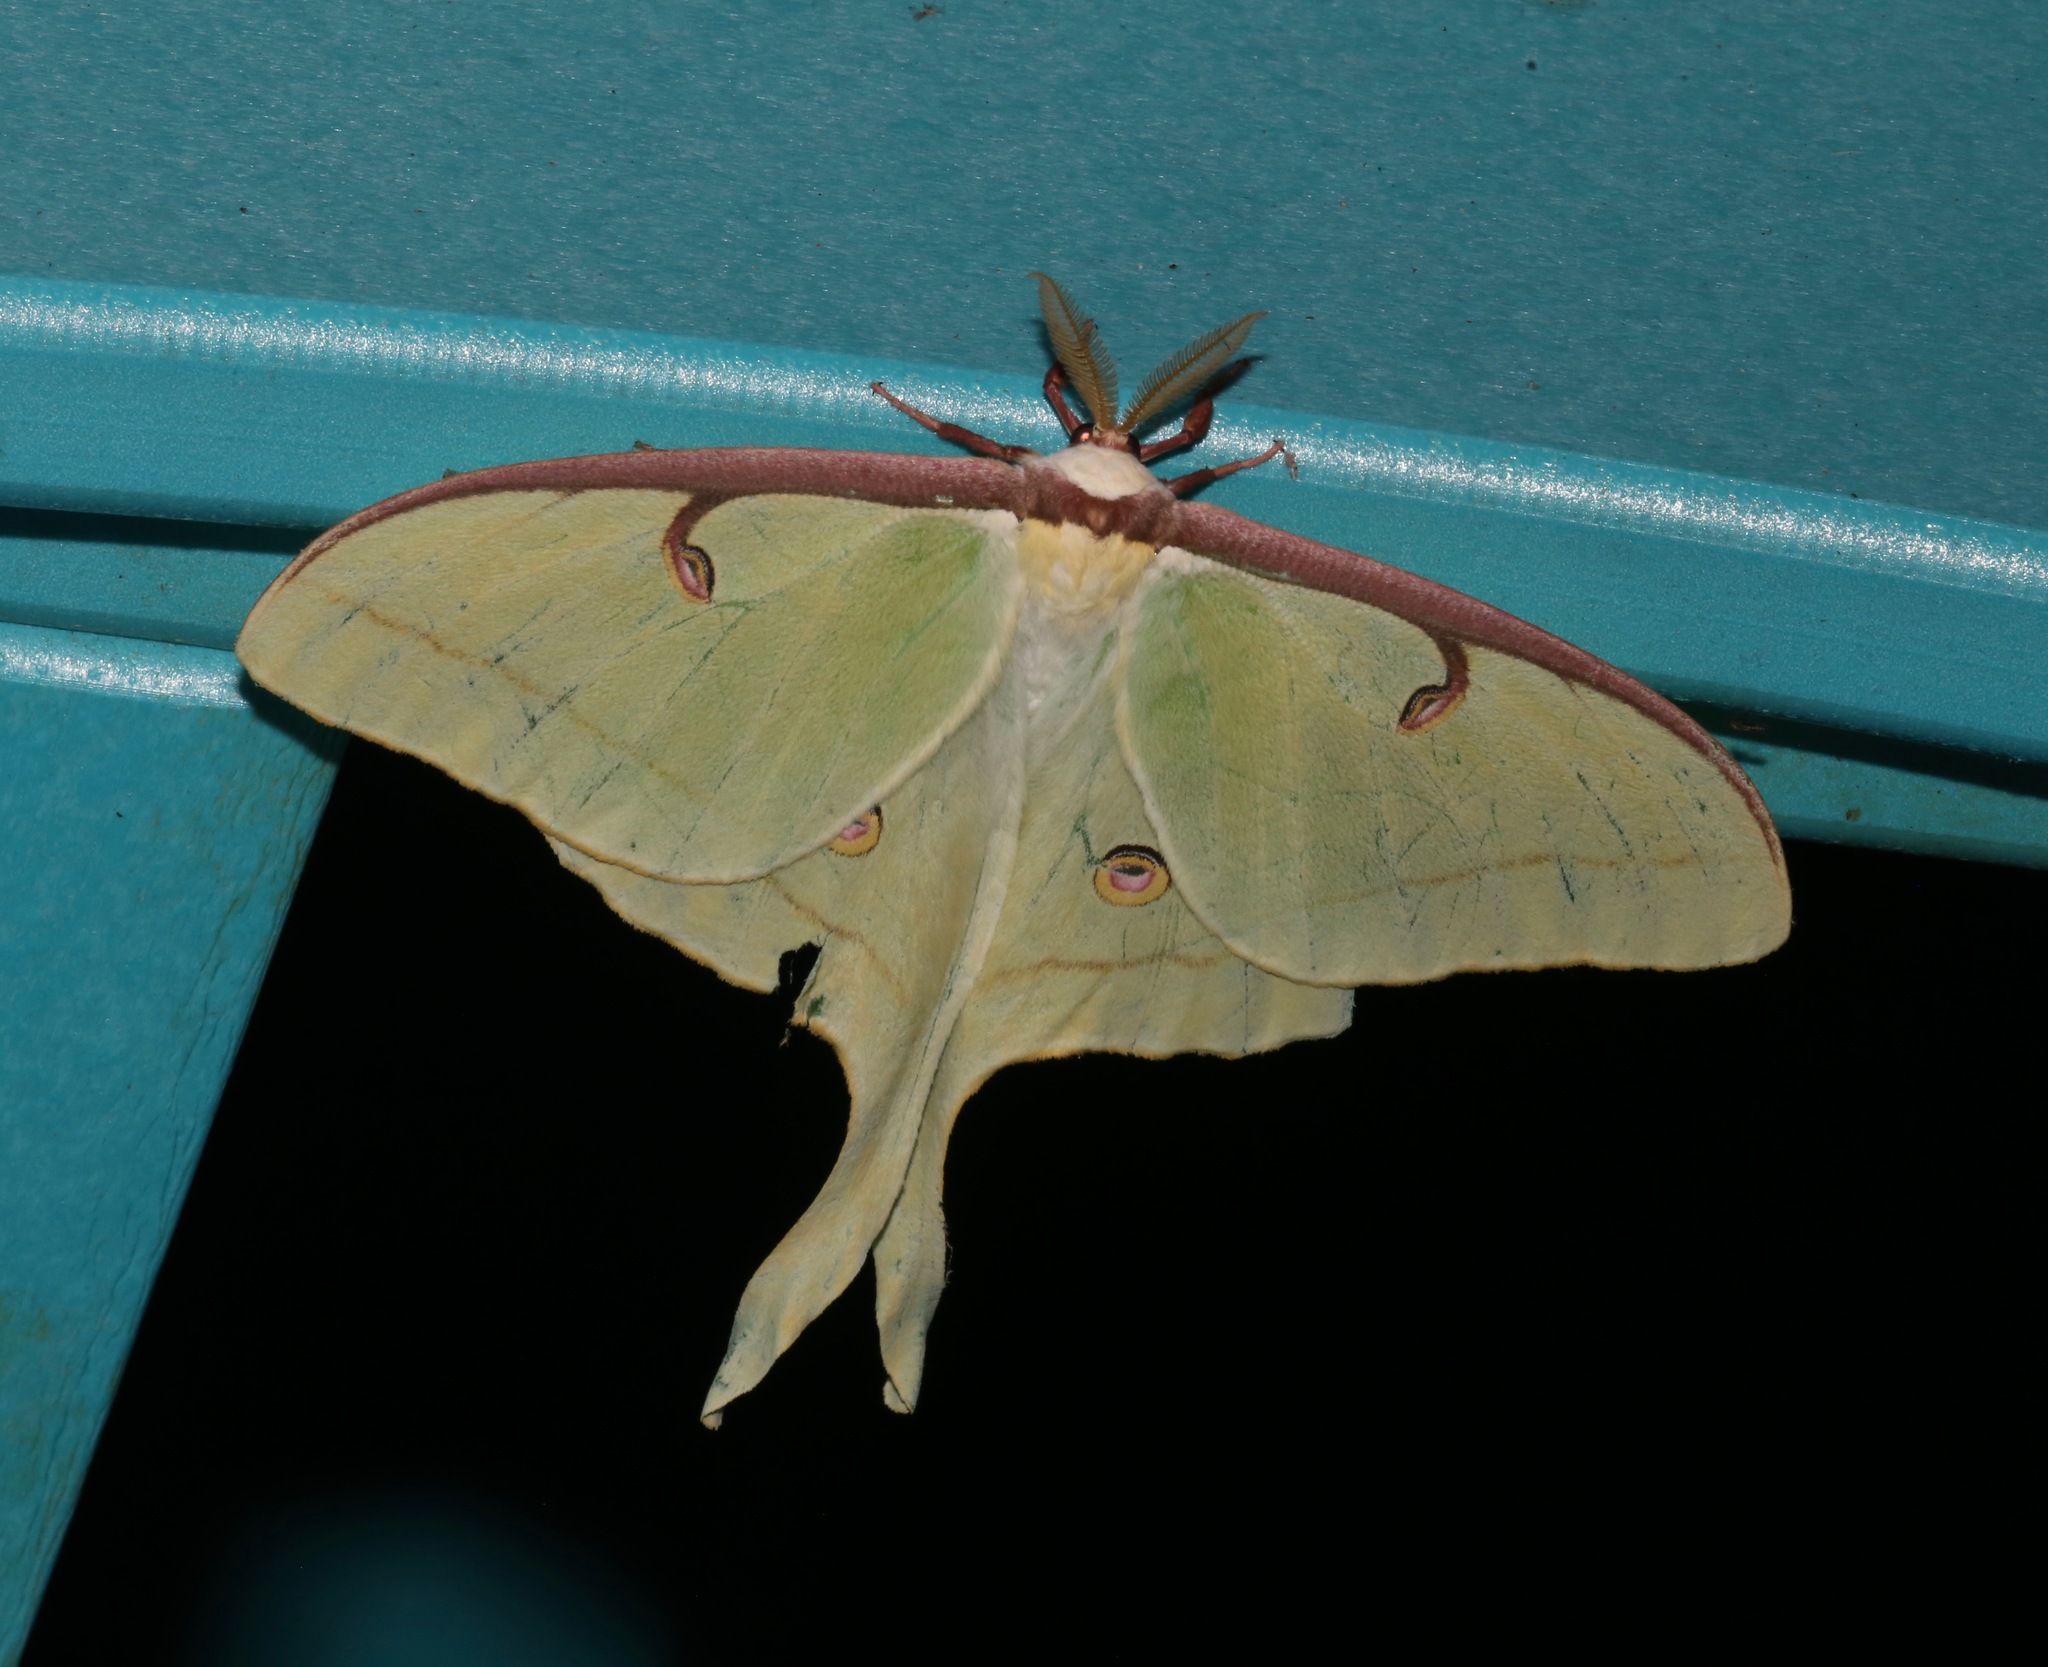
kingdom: Animalia
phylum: Arthropoda
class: Insecta
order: Lepidoptera
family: Saturniidae
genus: Actias
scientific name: Actias luna
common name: Luna moth
